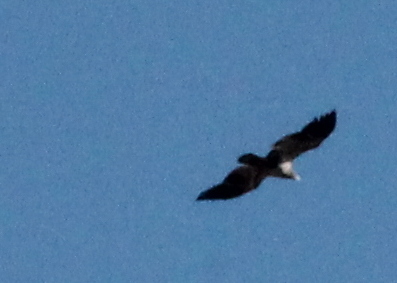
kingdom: Animalia
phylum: Chordata
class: Aves
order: Accipitriformes
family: Accipitridae
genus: Haliaeetus
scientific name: Haliaeetus leucocephalus
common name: Bald eagle
